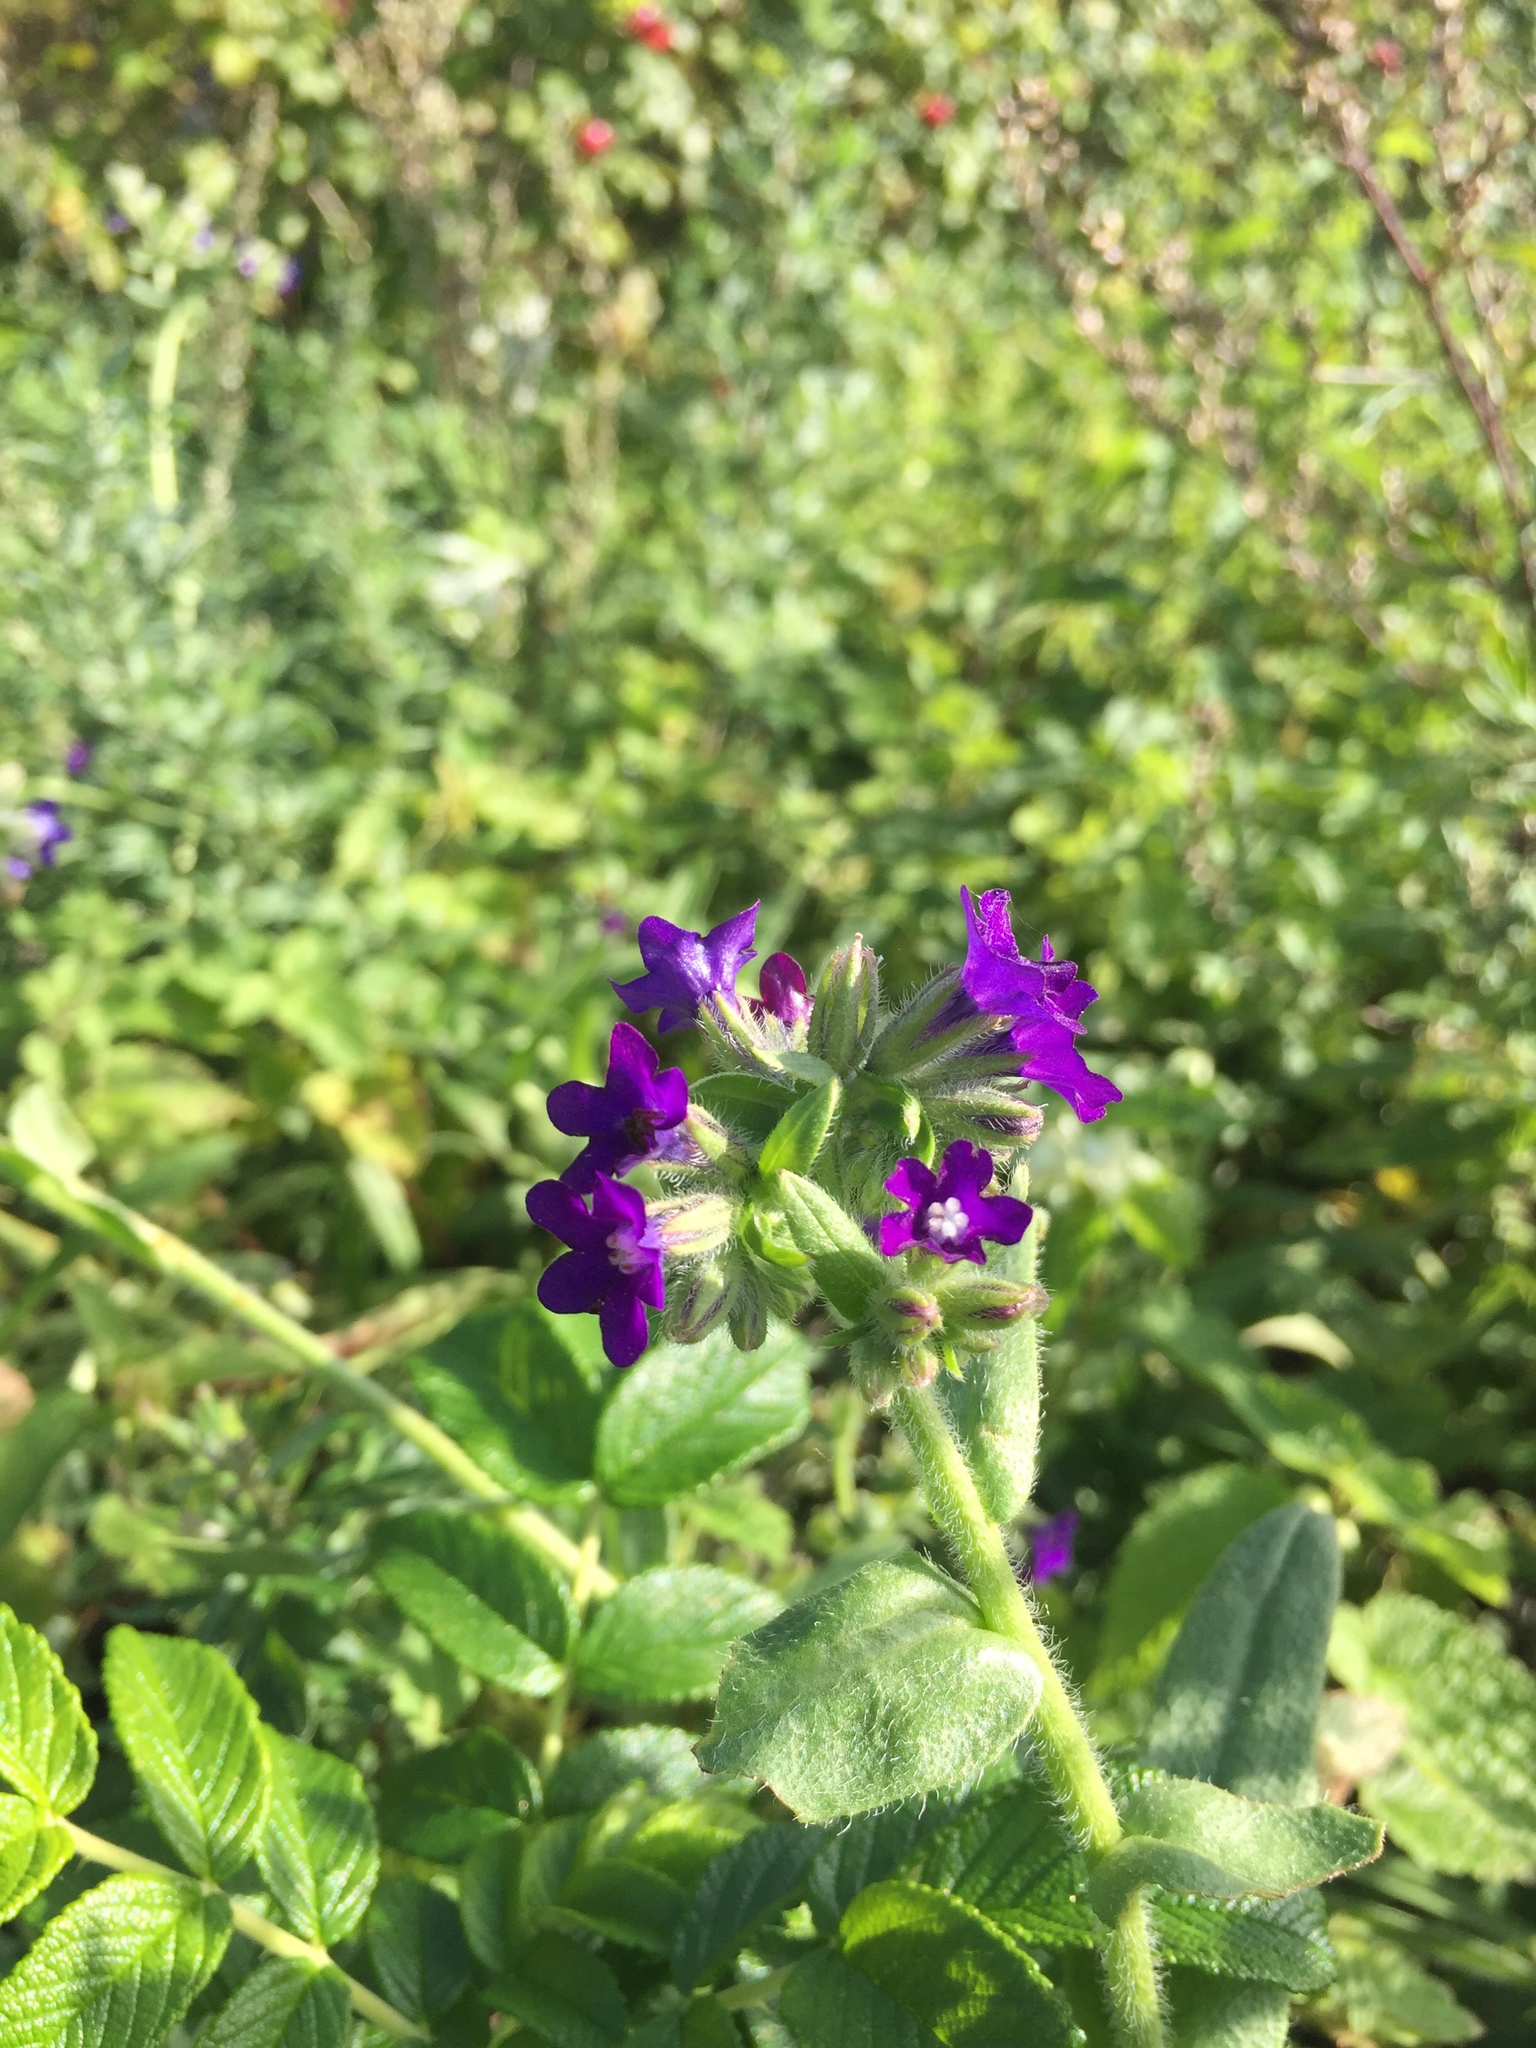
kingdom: Plantae
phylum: Tracheophyta
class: Magnoliopsida
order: Boraginales
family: Boraginaceae
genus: Anchusa
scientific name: Anchusa officinalis
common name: Alkanet
